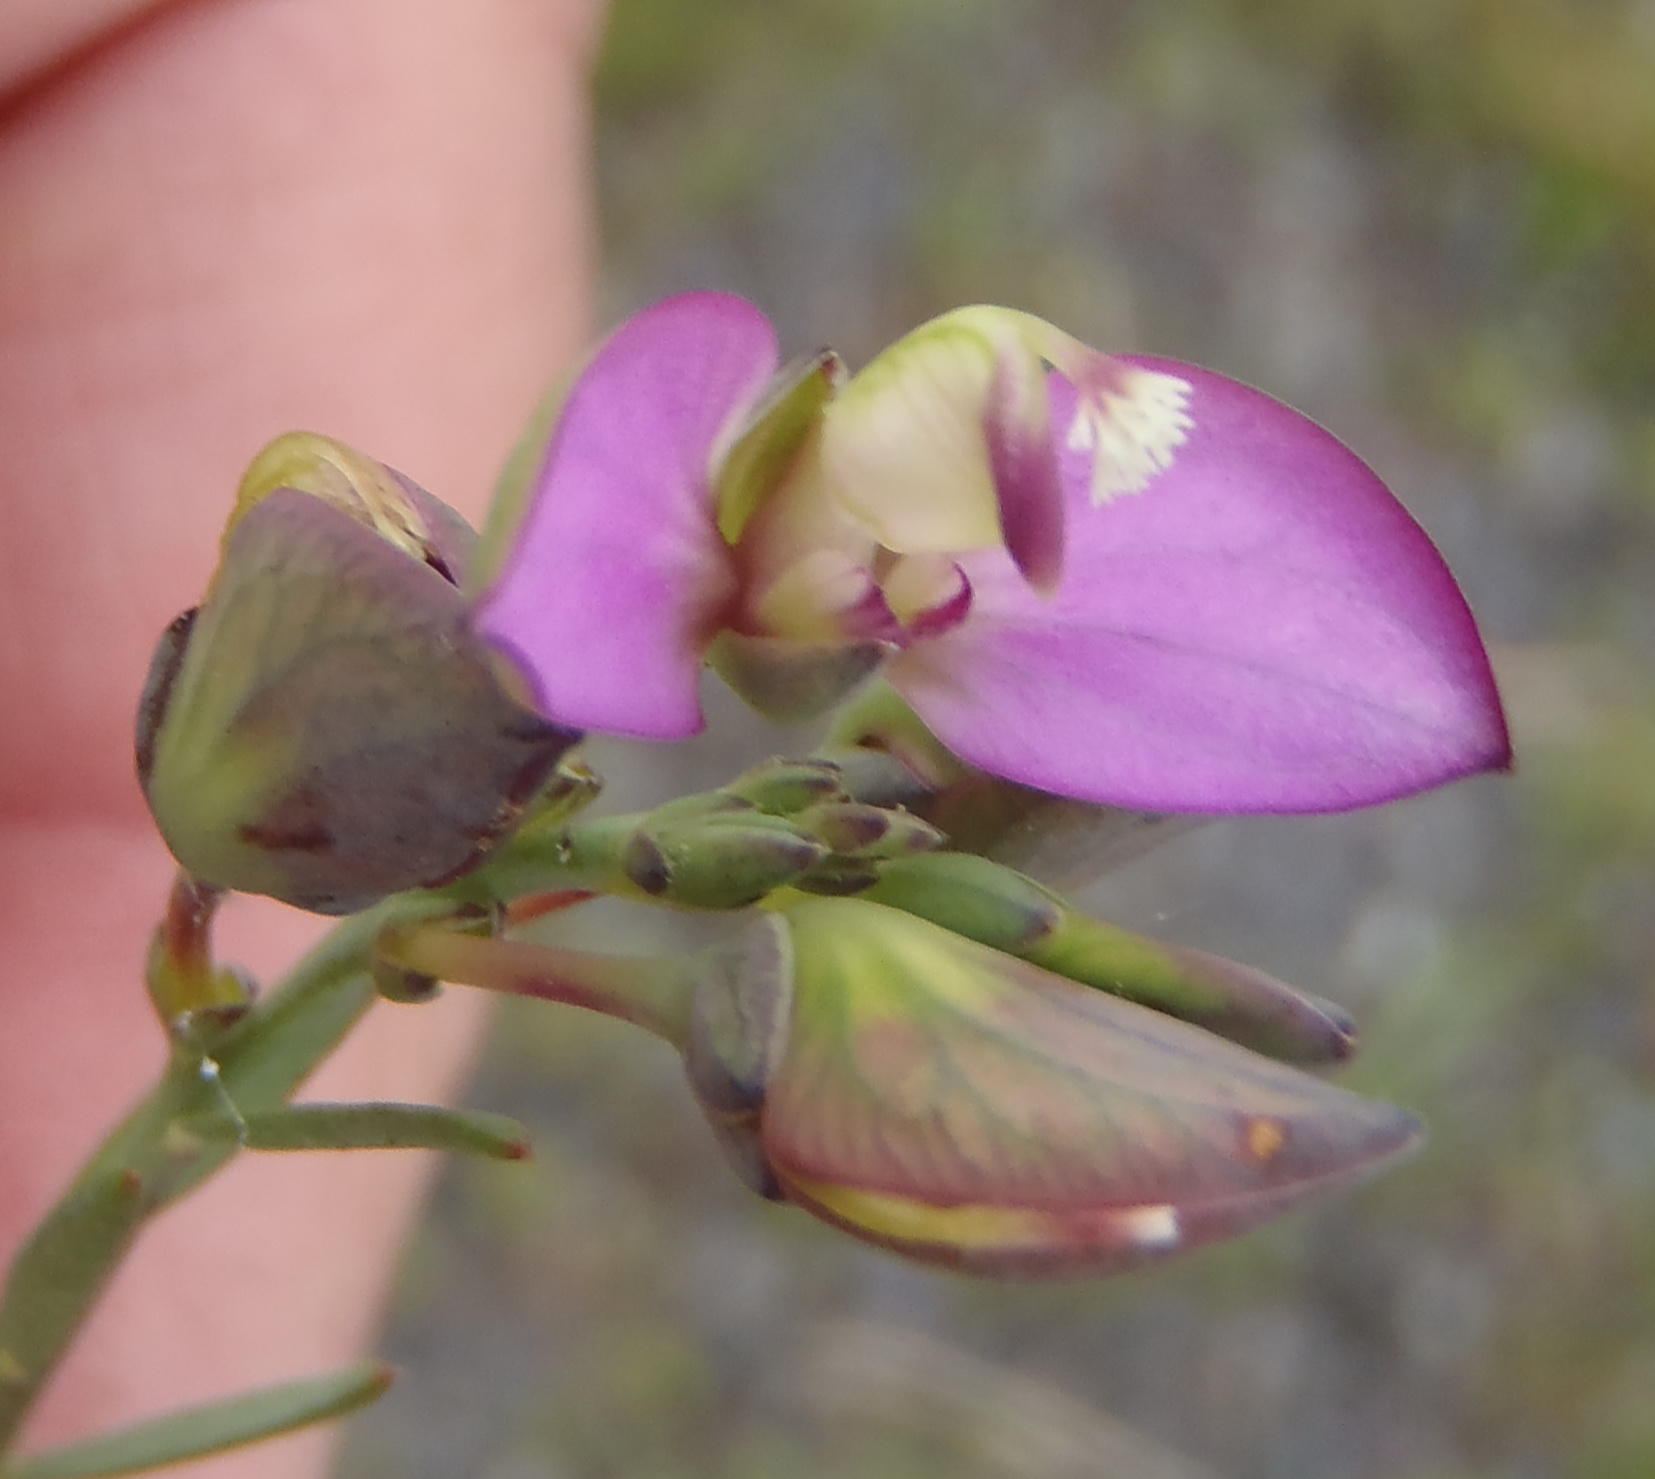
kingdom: Plantae
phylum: Tracheophyta
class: Magnoliopsida
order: Fabales
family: Polygalaceae
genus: Polygala
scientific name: Polygala wittebergensis
